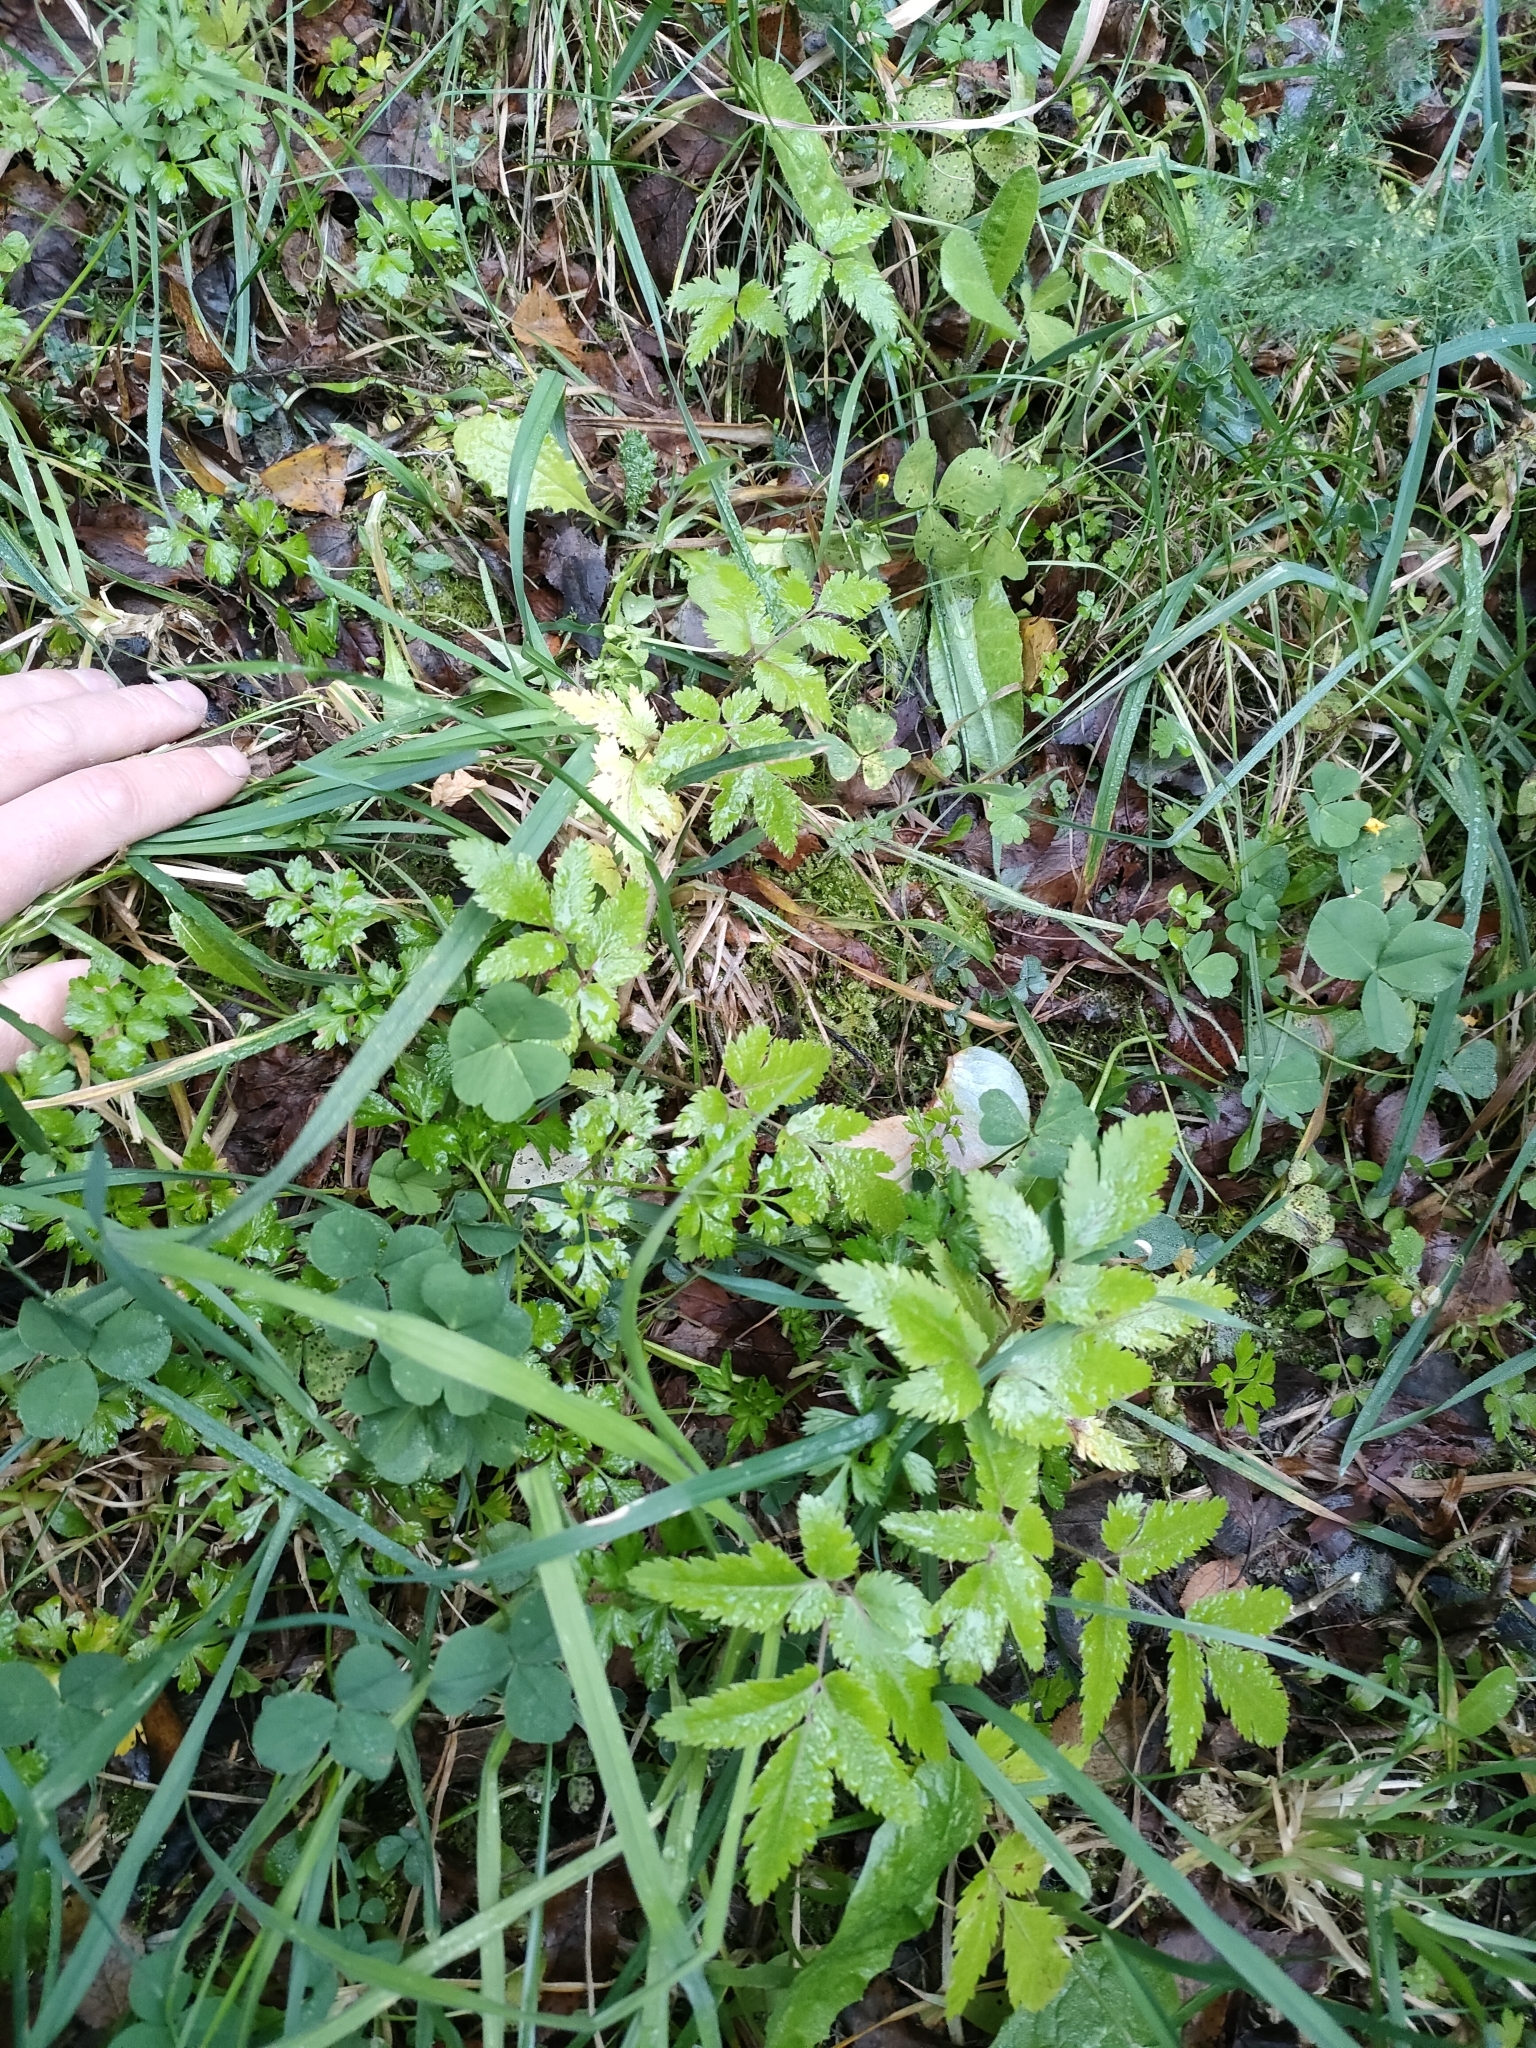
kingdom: Plantae
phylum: Tracheophyta
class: Magnoliopsida
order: Apiales
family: Apiaceae
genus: Daucus
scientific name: Daucus decipiens
